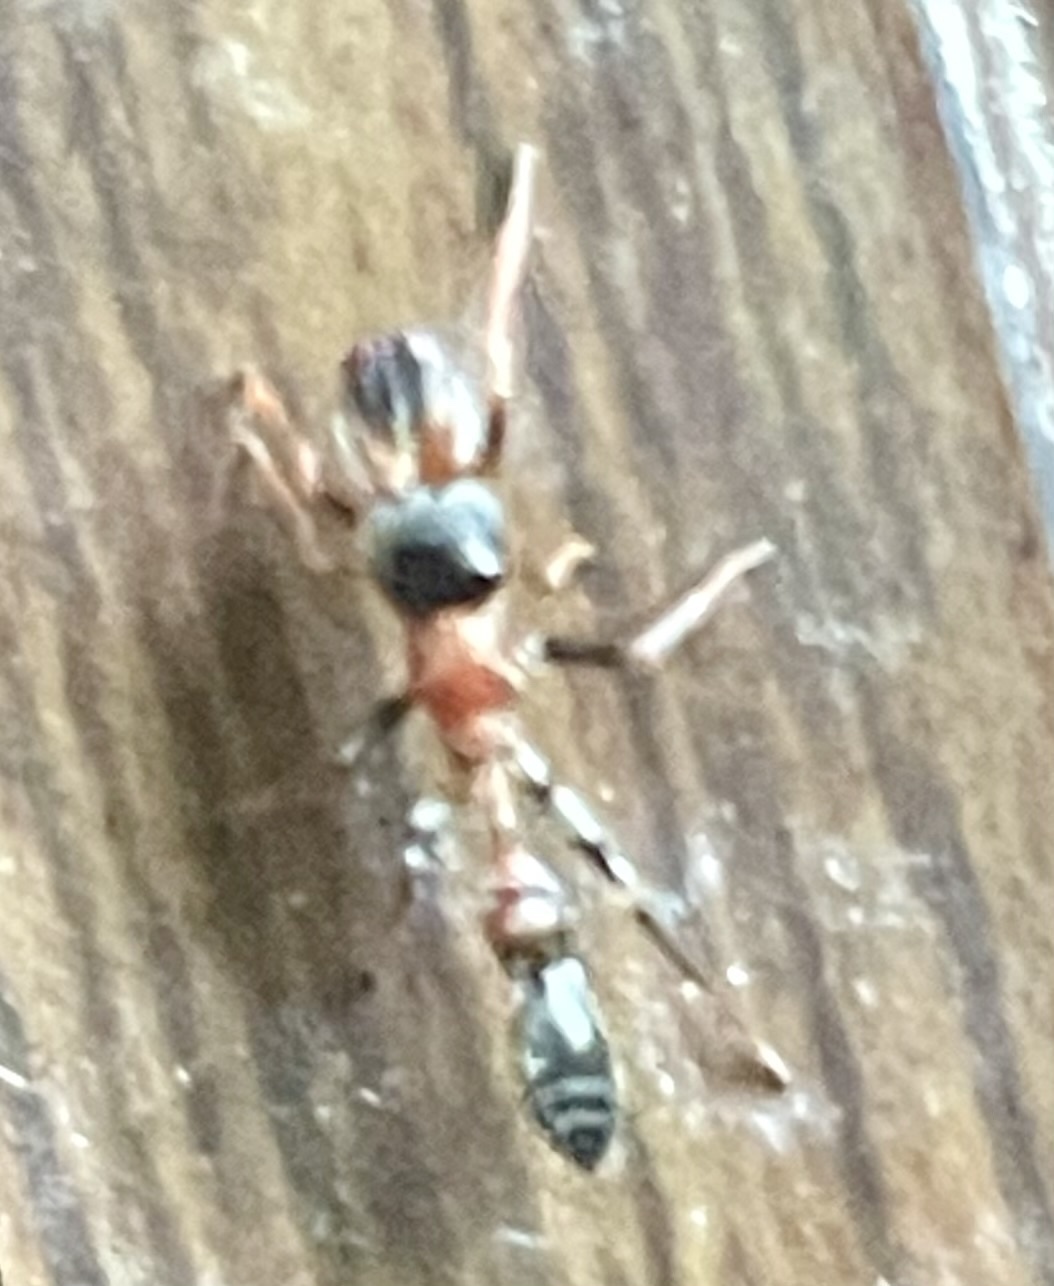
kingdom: Animalia
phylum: Arthropoda
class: Arachnida
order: Araneae
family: Salticidae
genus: Myrmarachne
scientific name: Myrmarachne melanocephala
